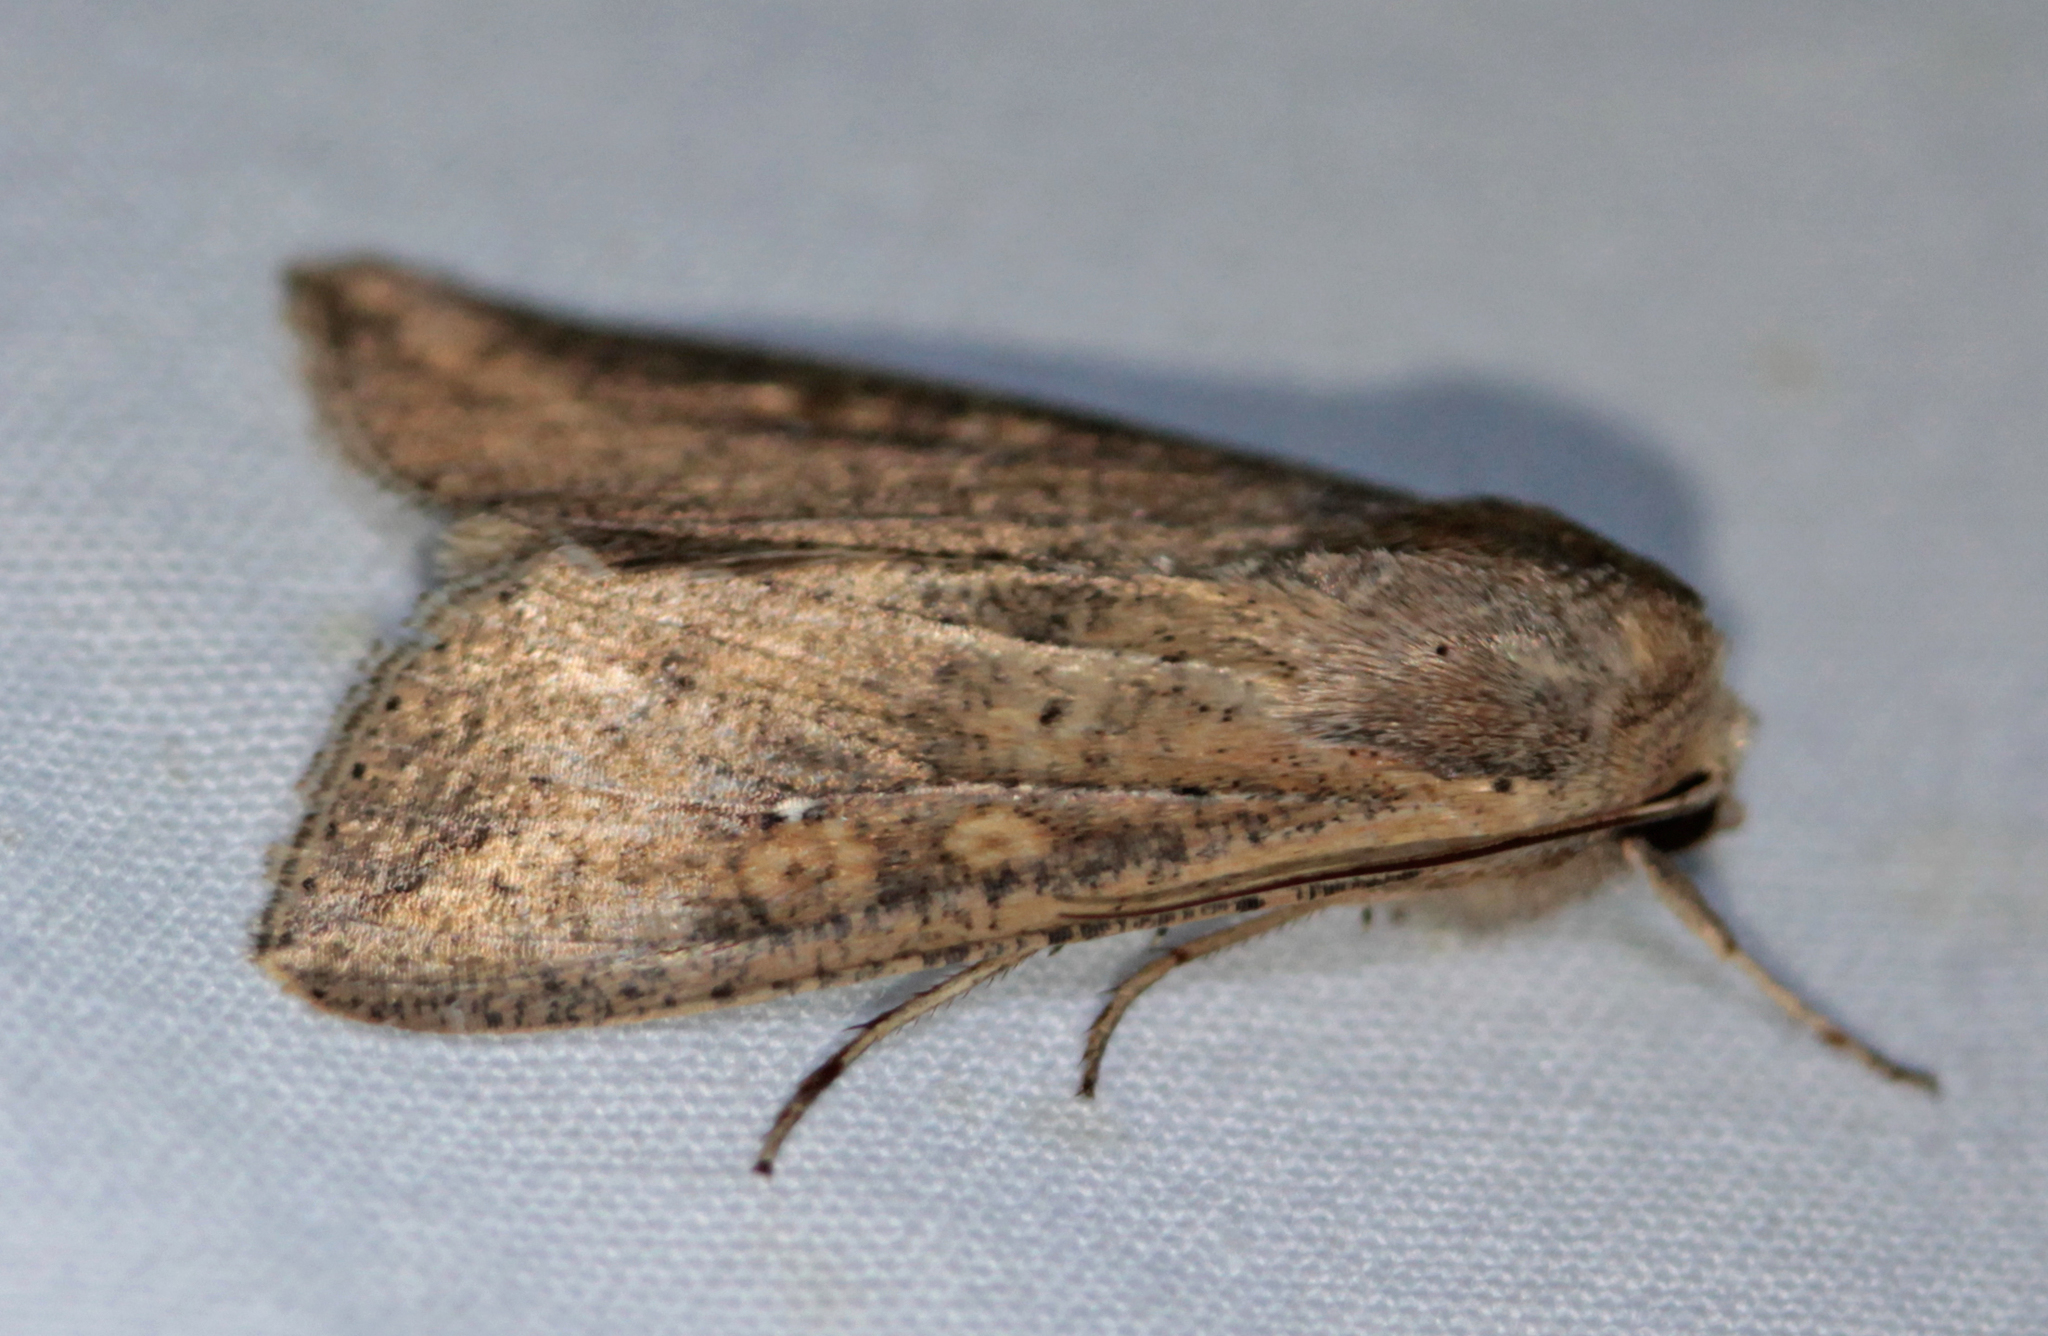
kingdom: Animalia
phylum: Arthropoda
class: Insecta
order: Lepidoptera
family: Noctuidae
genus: Mythimna
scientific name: Mythimna unipuncta
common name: White-speck
